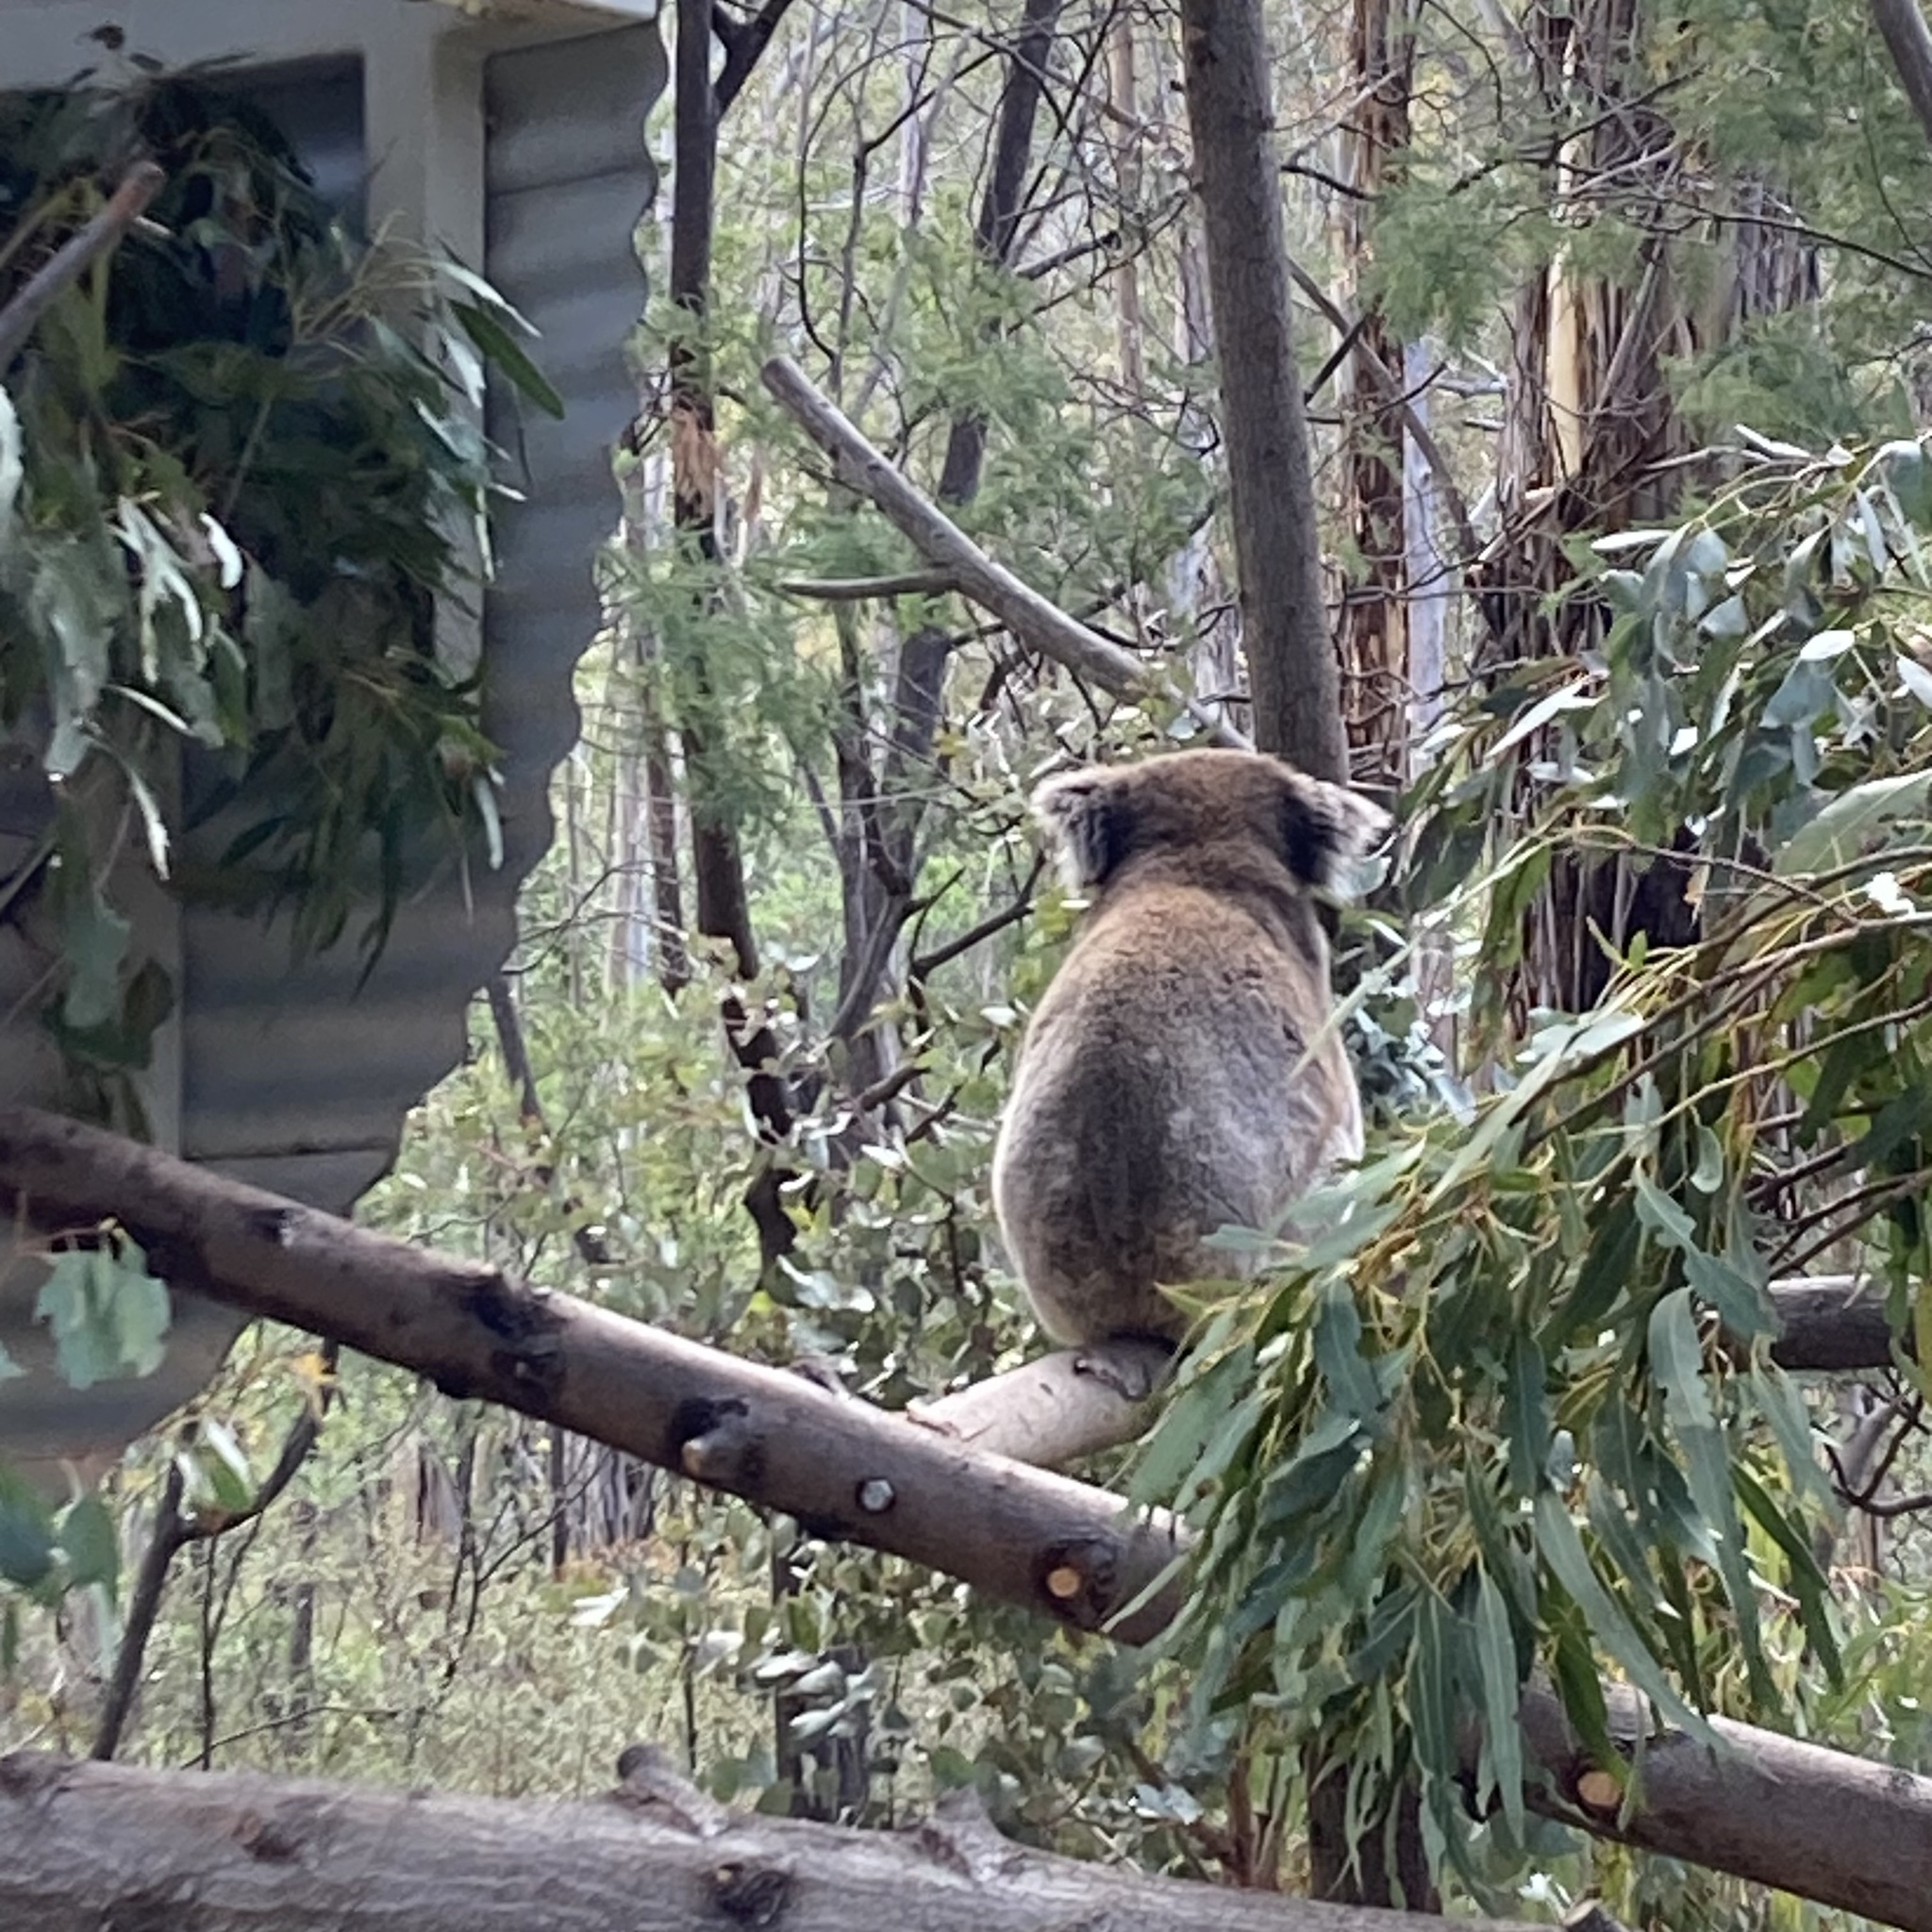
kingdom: Animalia
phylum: Chordata
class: Mammalia
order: Diprotodontia
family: Phascolarctidae
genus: Phascolarctos
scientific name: Phascolarctos cinereus
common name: Koala
